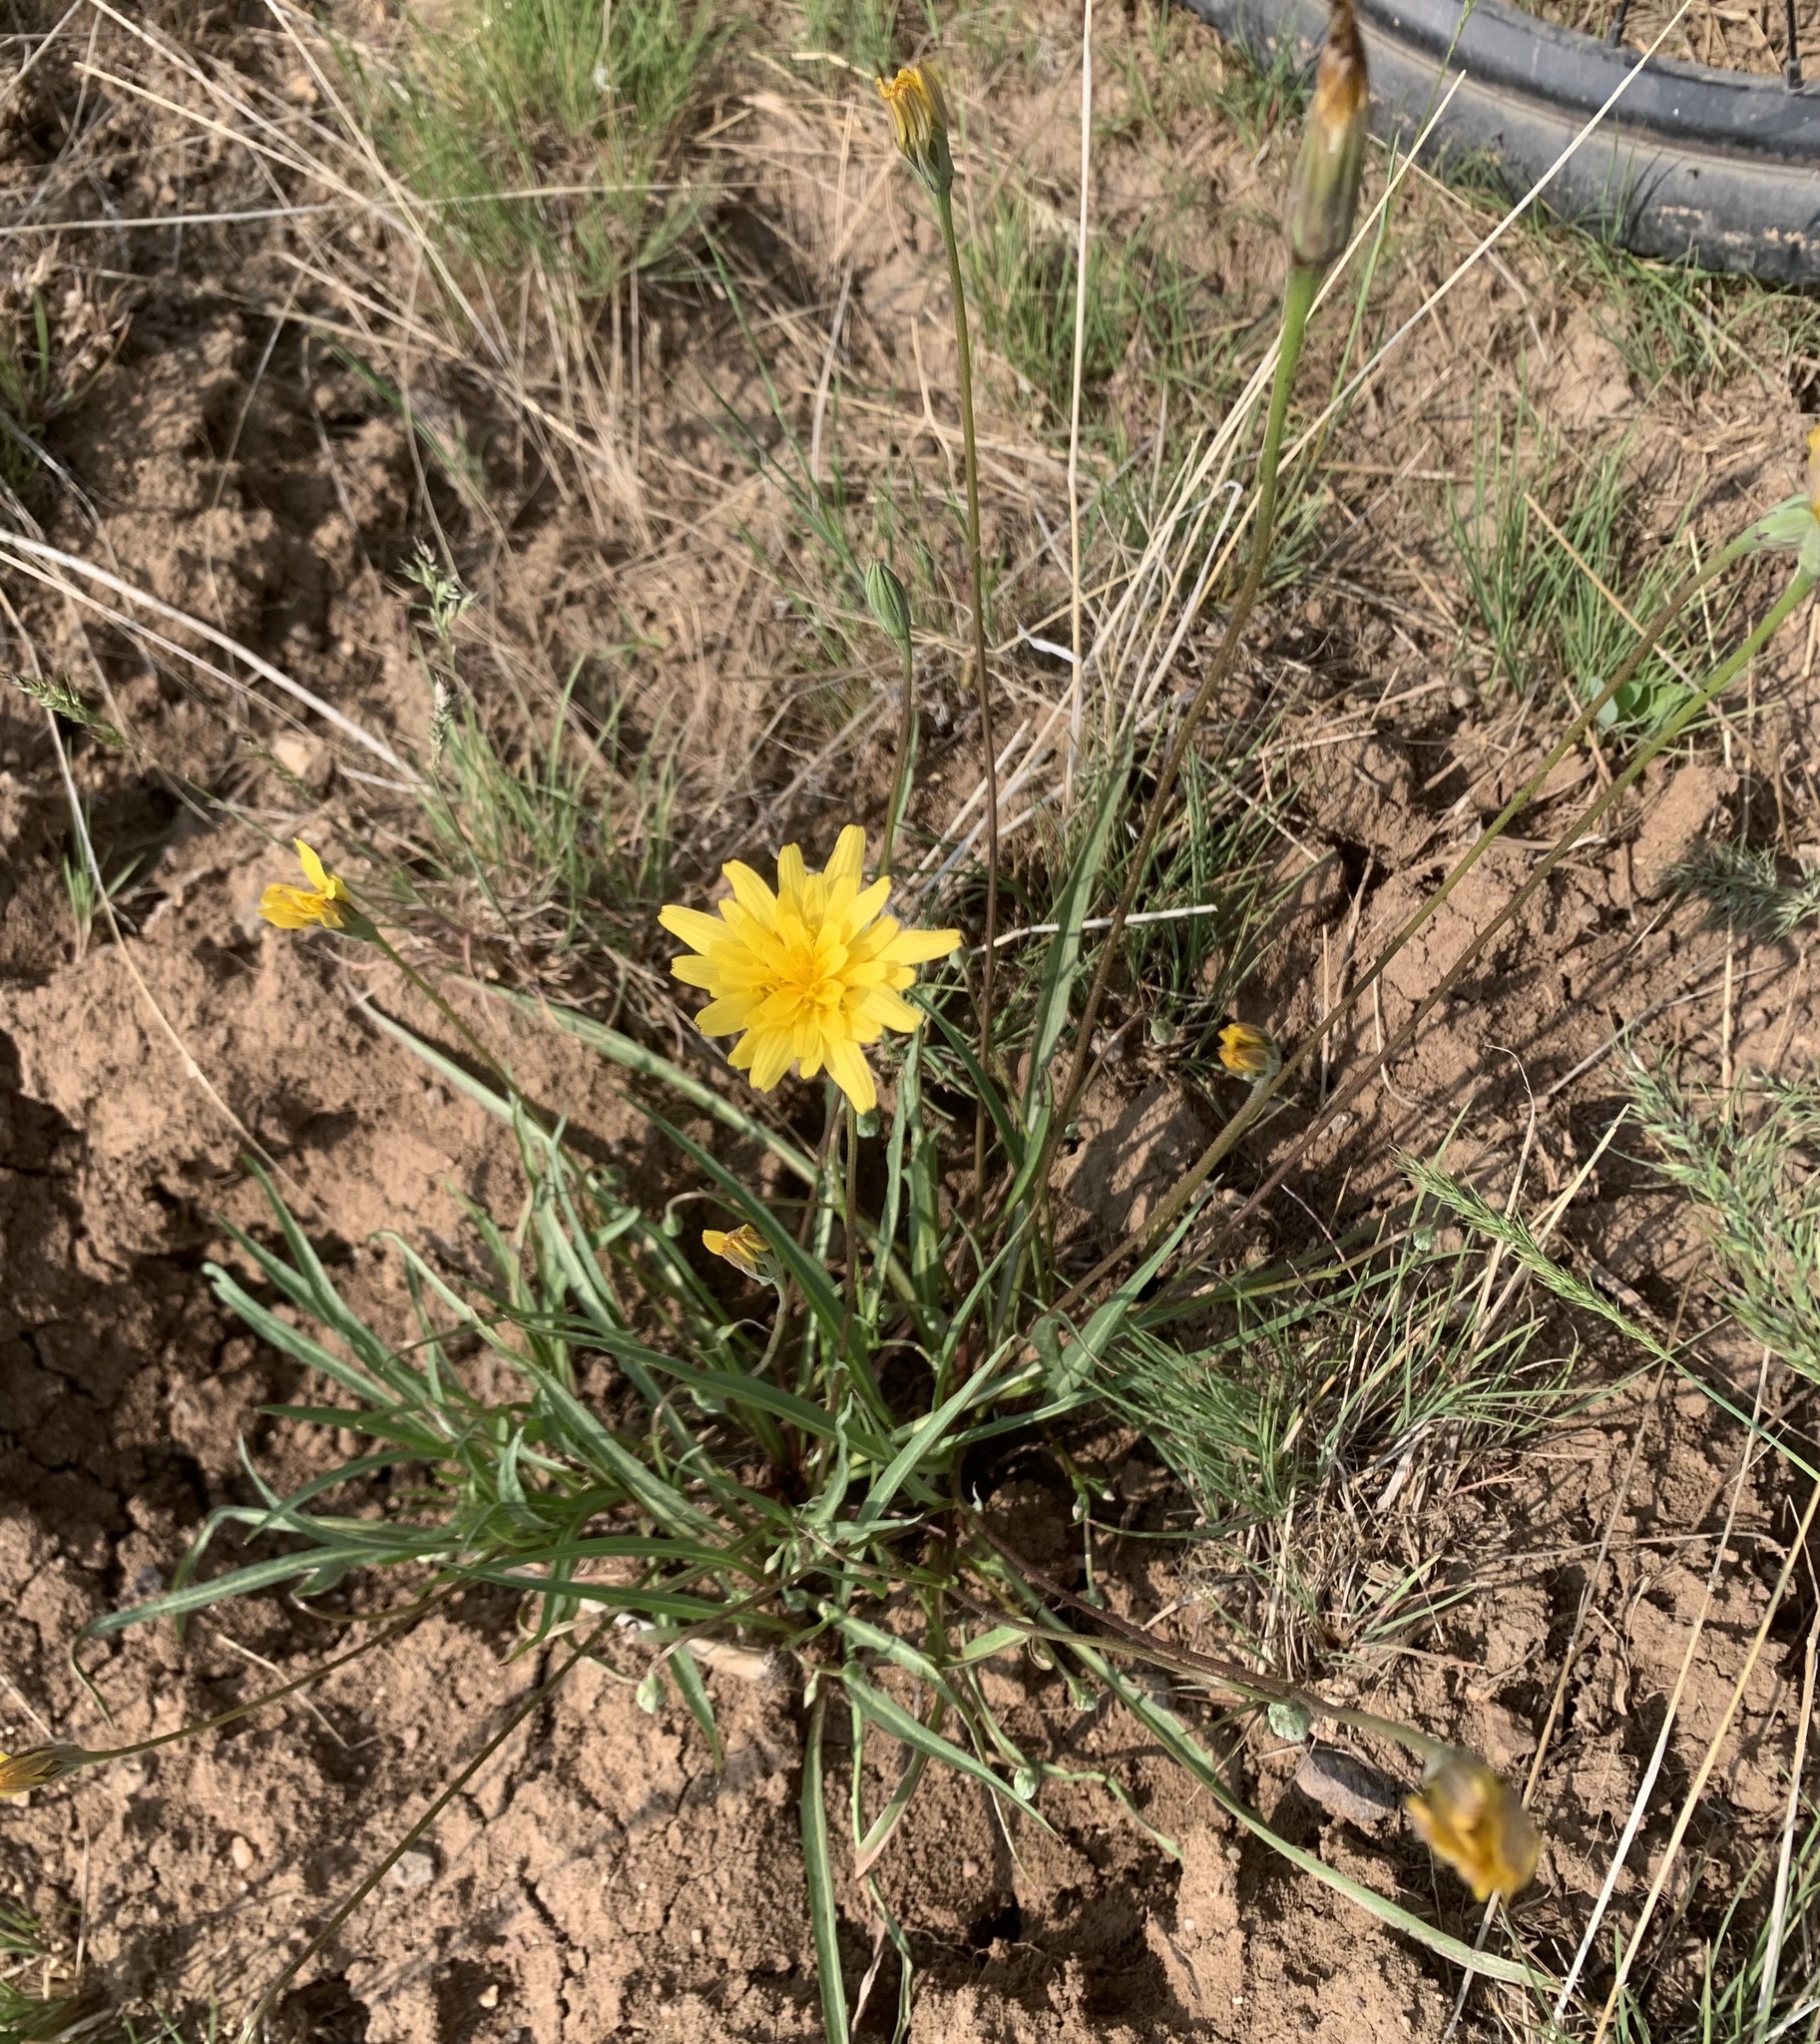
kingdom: Plantae
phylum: Tracheophyta
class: Magnoliopsida
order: Asterales
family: Asteraceae
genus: Microseris
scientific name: Microseris nutans
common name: Nodding microseris
